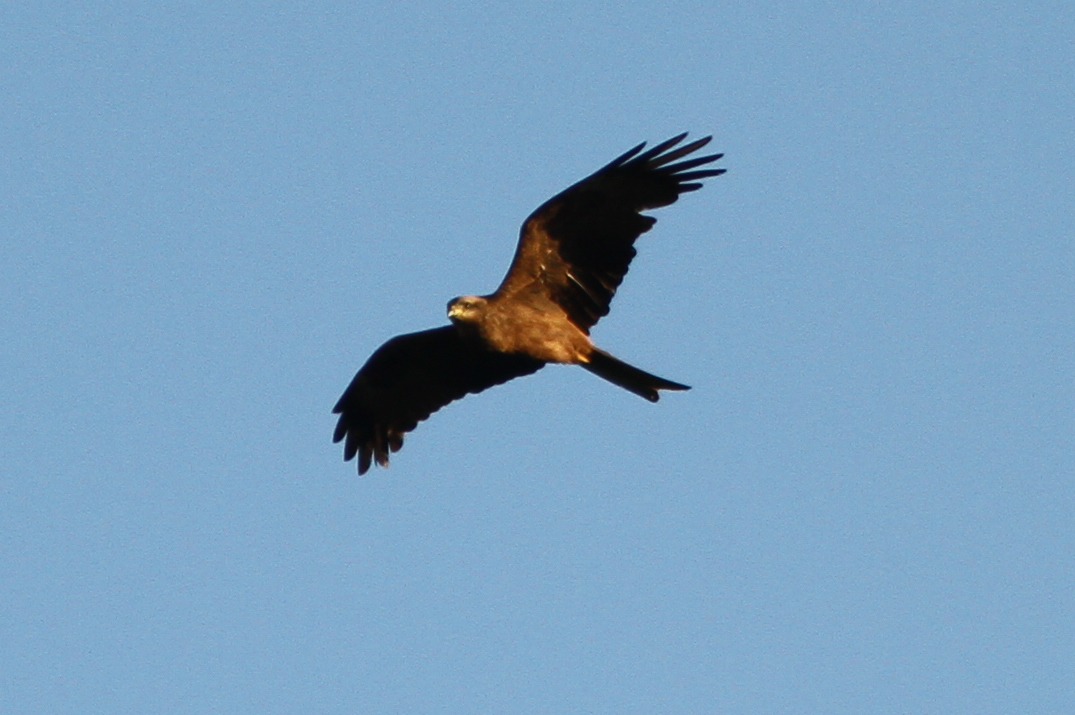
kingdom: Animalia
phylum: Chordata
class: Aves
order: Accipitriformes
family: Accipitridae
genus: Milvus
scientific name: Milvus migrans
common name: Black kite
